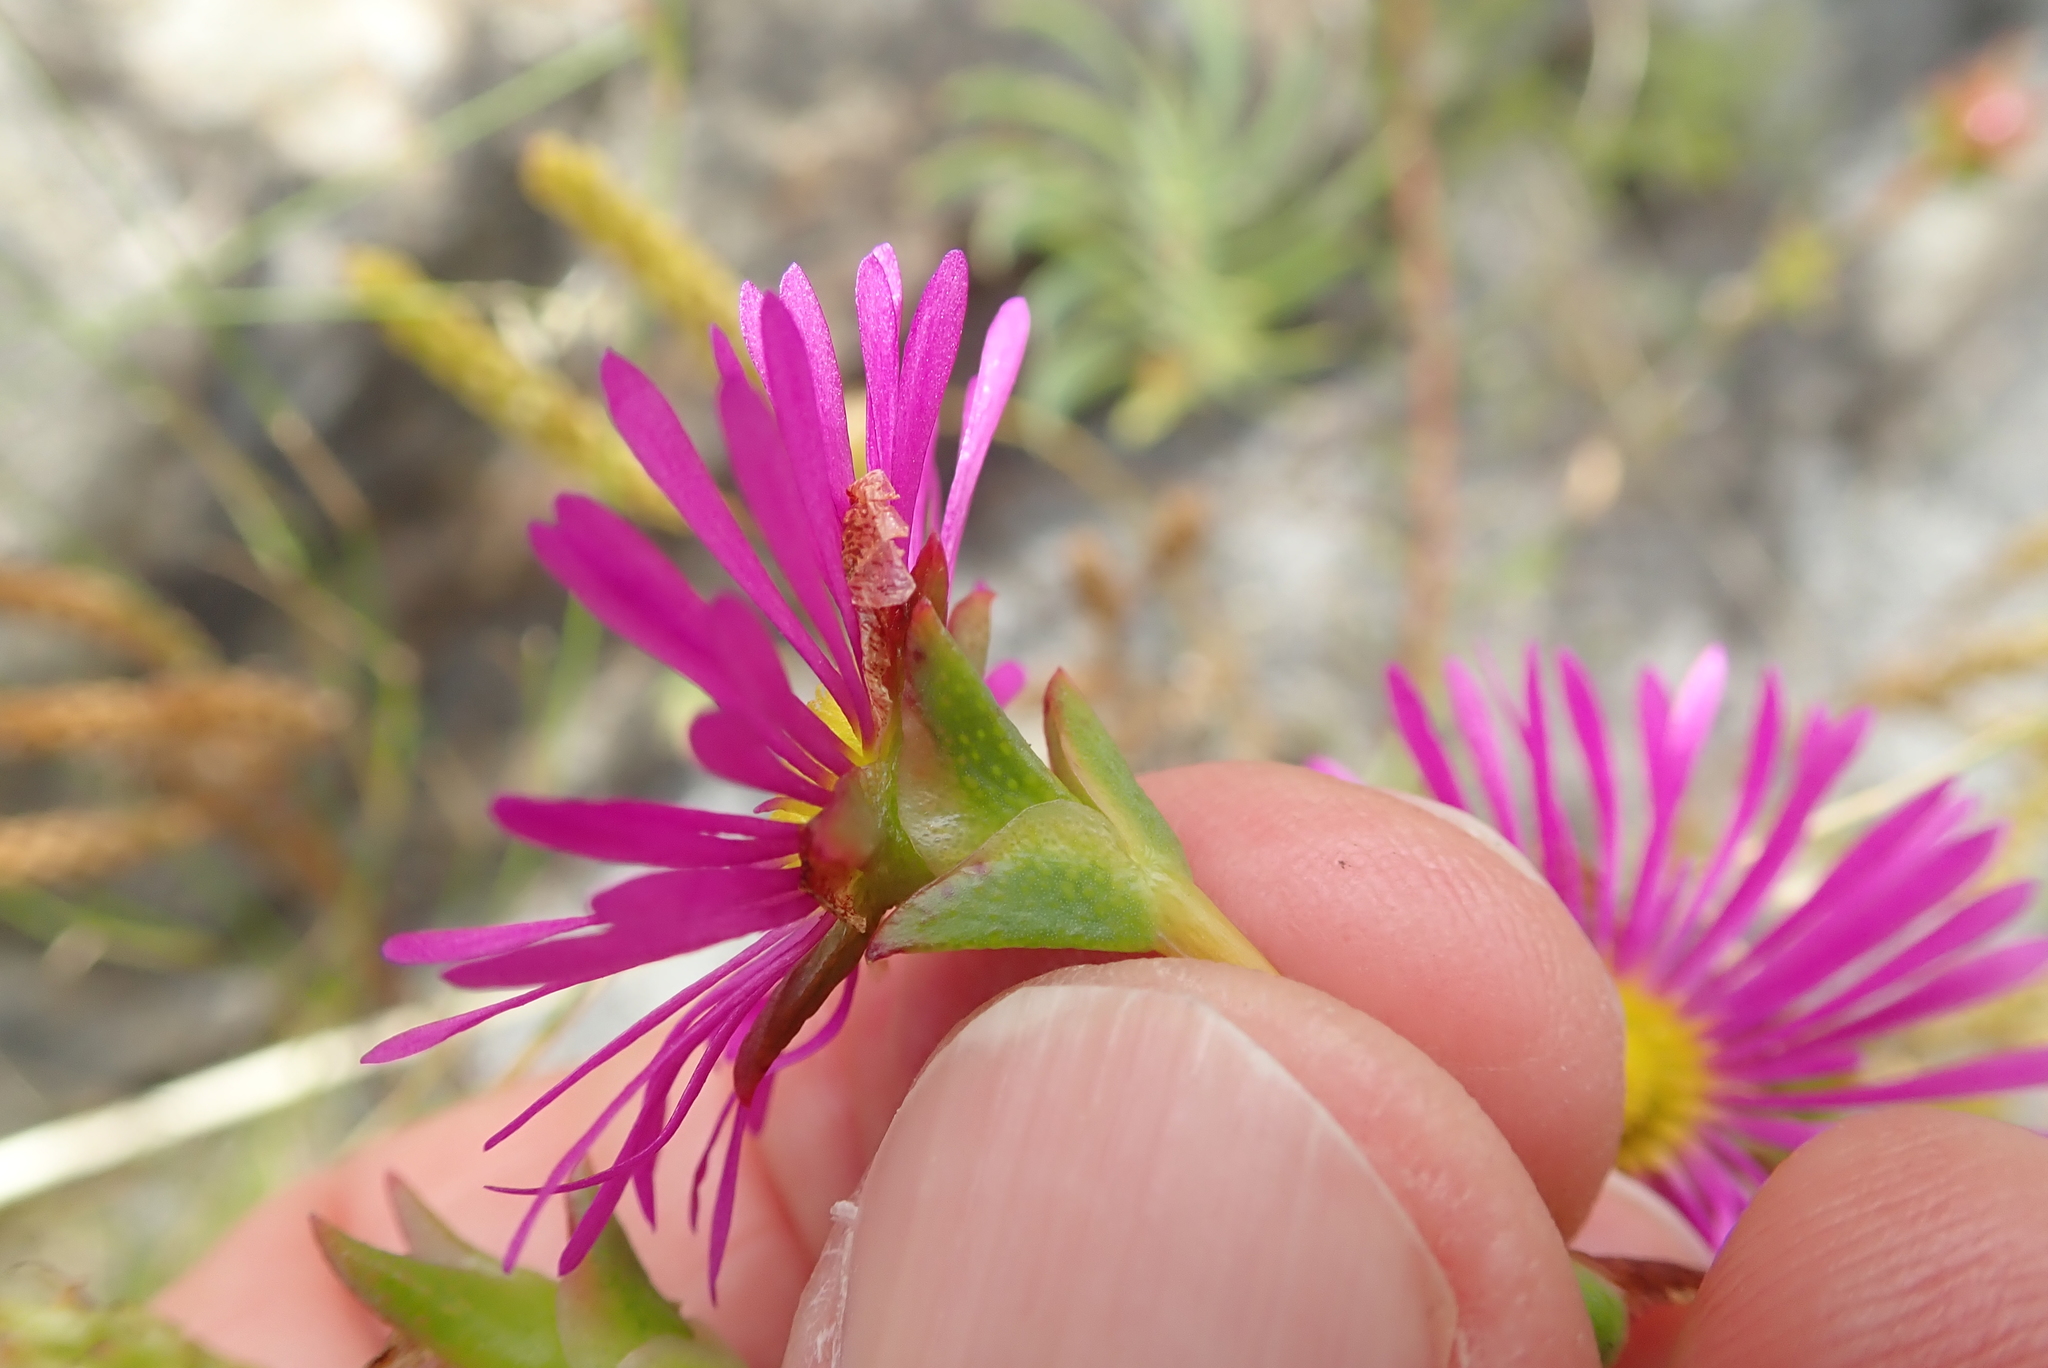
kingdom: Plantae
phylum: Tracheophyta
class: Magnoliopsida
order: Caryophyllales
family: Aizoaceae
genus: Erepsia
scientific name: Erepsia anceps
